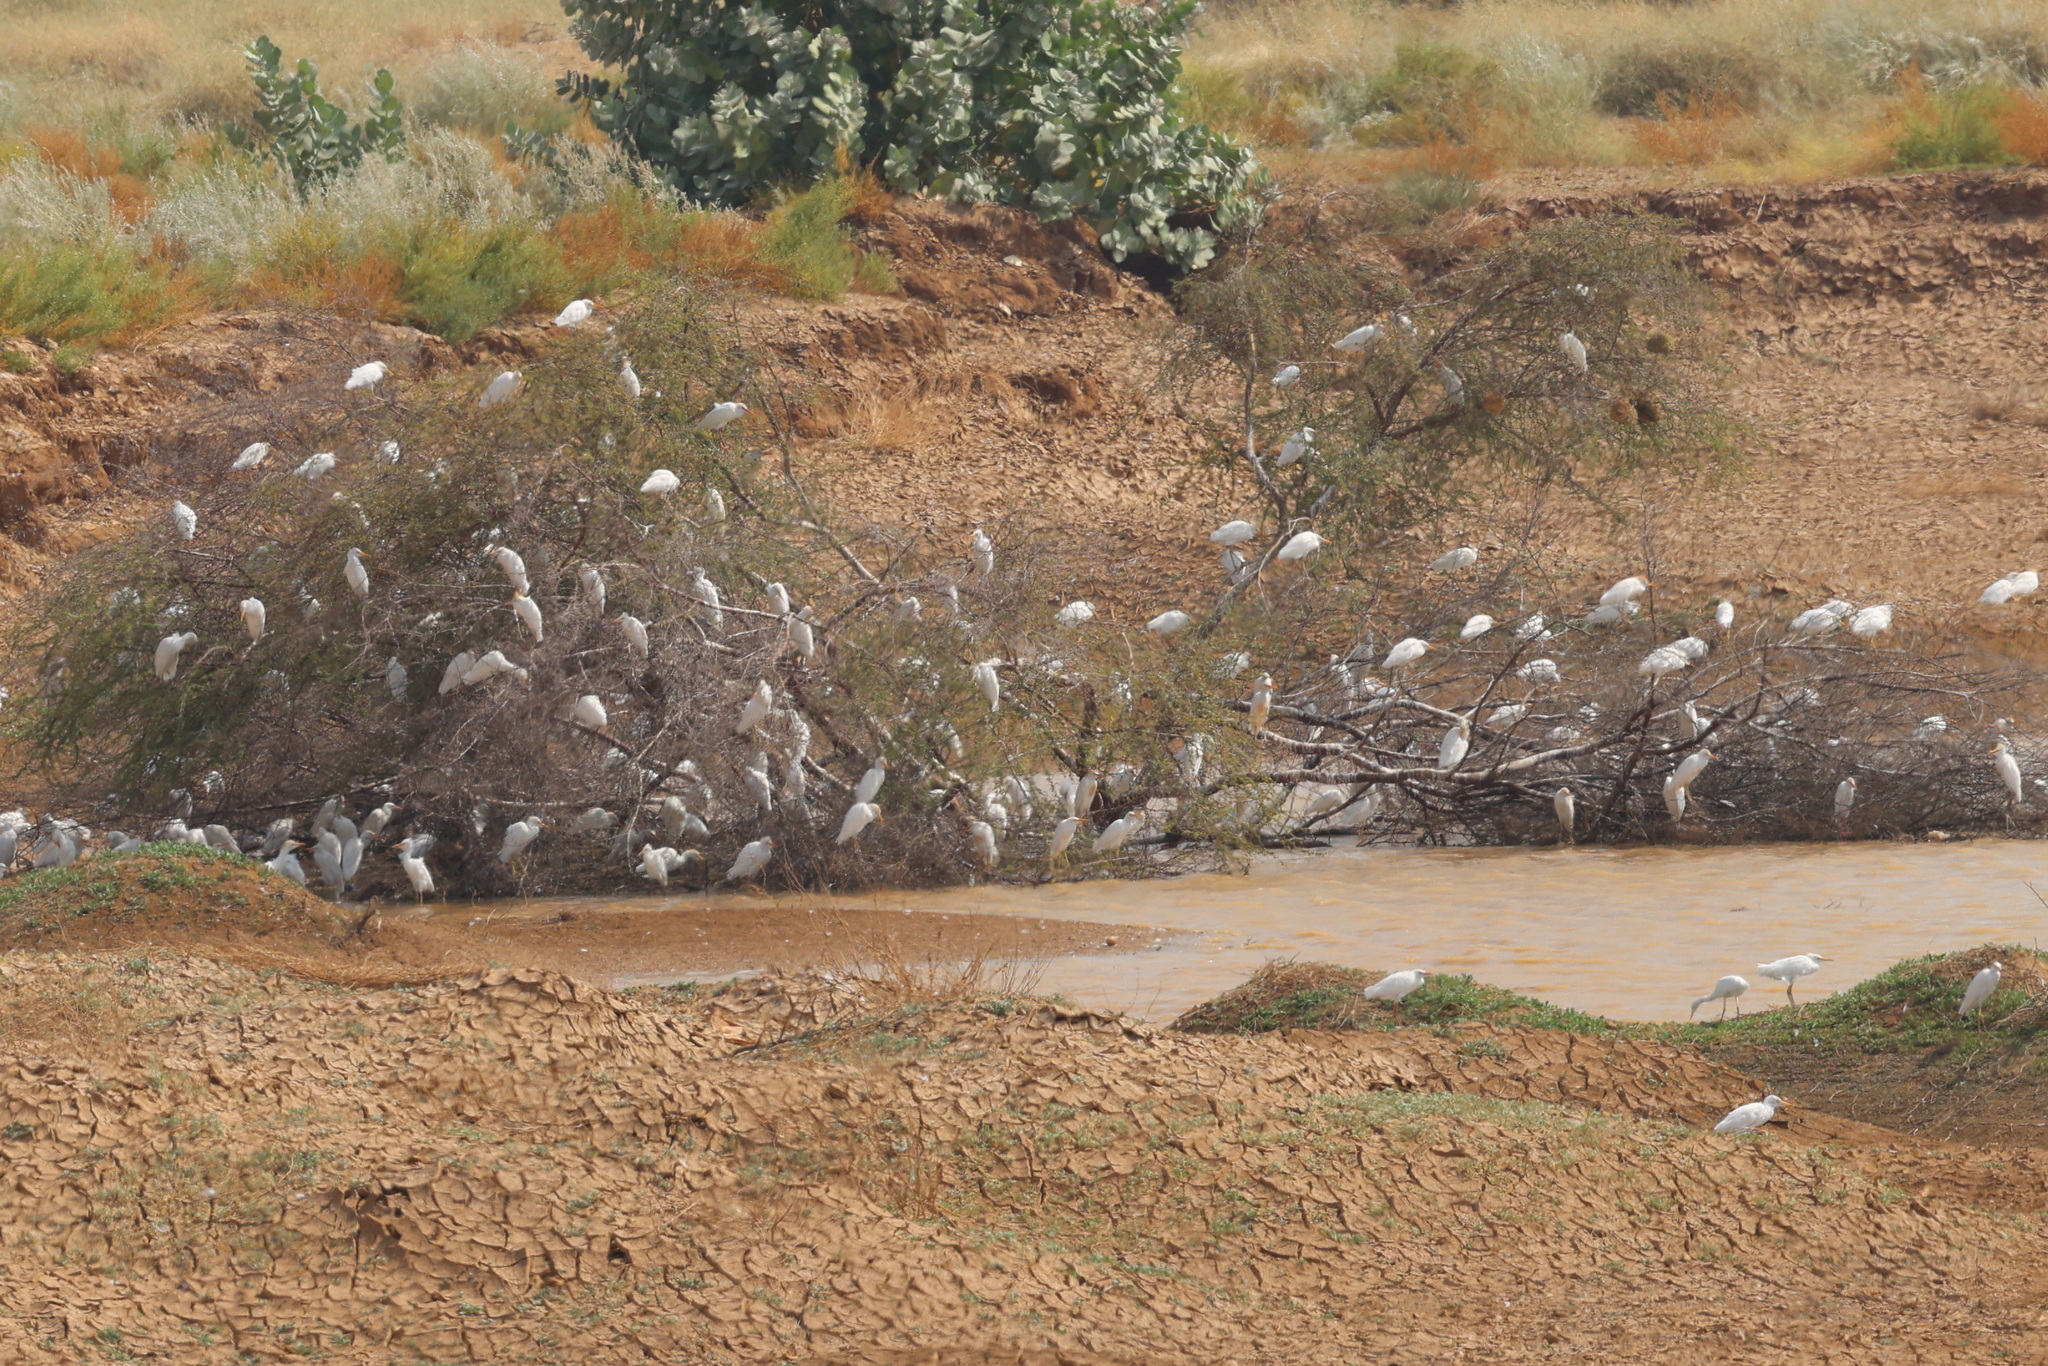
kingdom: Animalia
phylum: Chordata
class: Aves
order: Pelecaniformes
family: Ardeidae
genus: Bubulcus
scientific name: Bubulcus ibis
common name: Cattle egret
